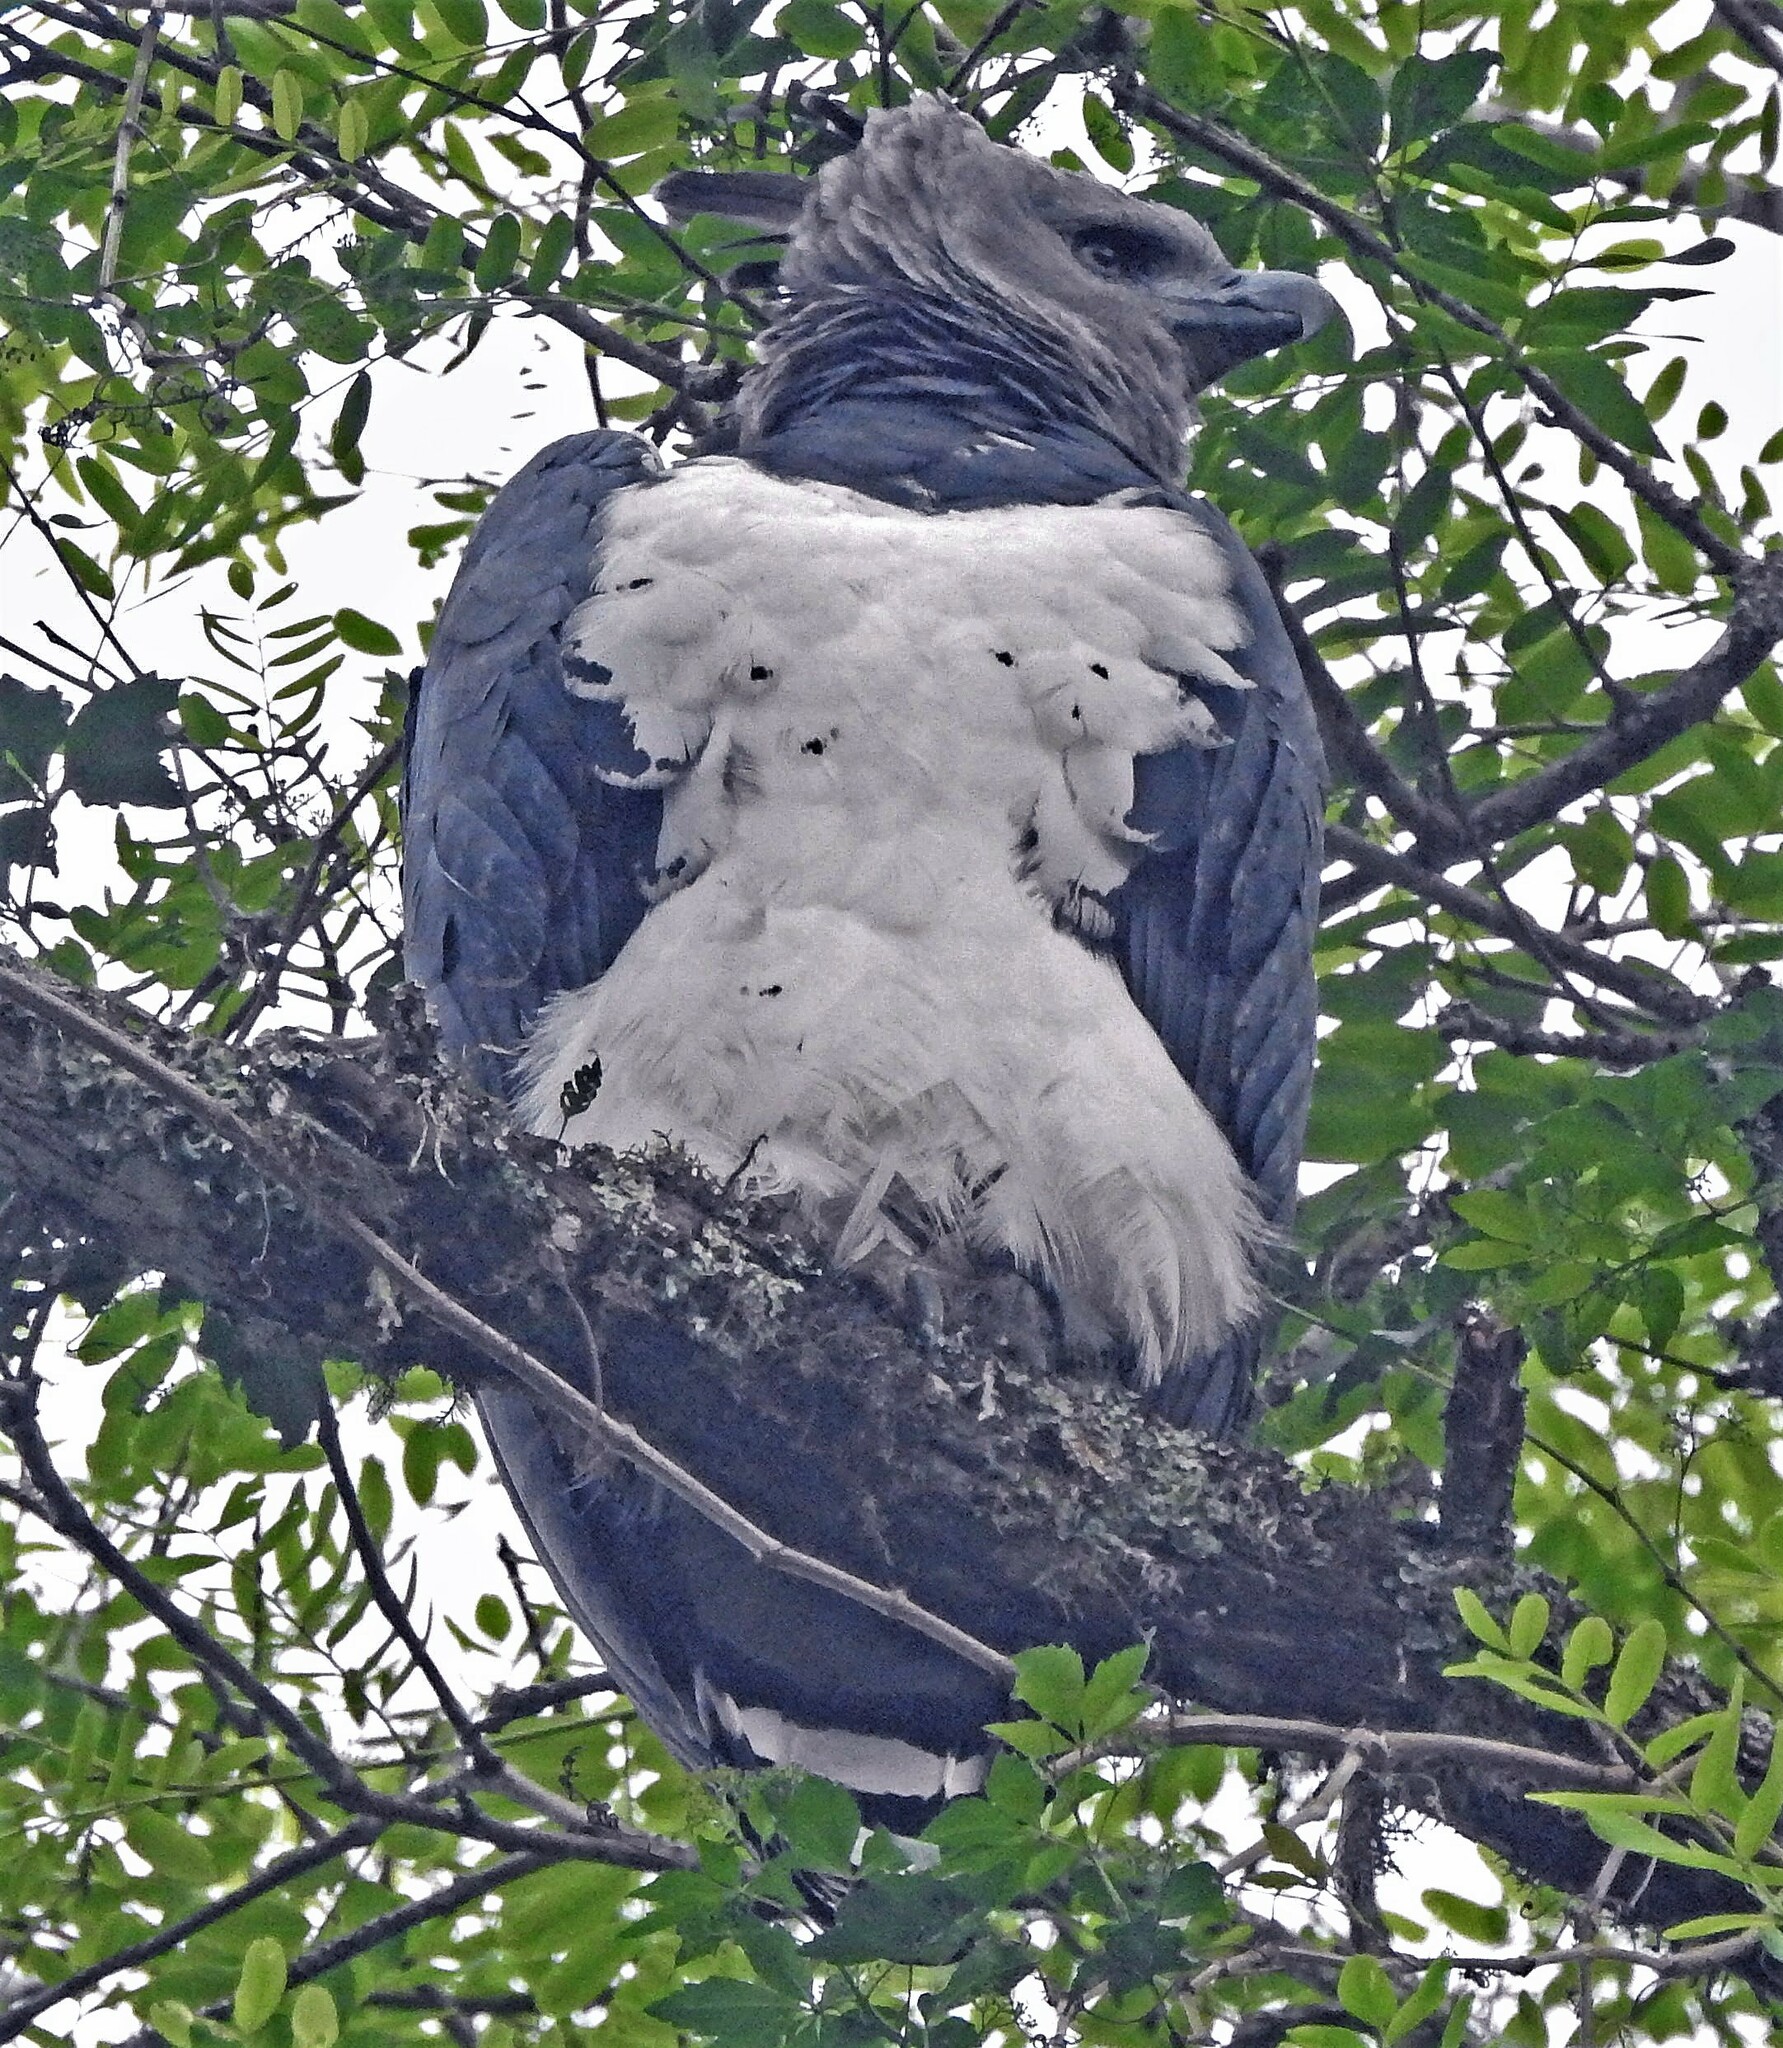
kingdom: Animalia
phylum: Chordata
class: Aves
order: Accipitriformes
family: Accipitridae
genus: Harpia
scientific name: Harpia harpyja
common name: Harpy eagle
